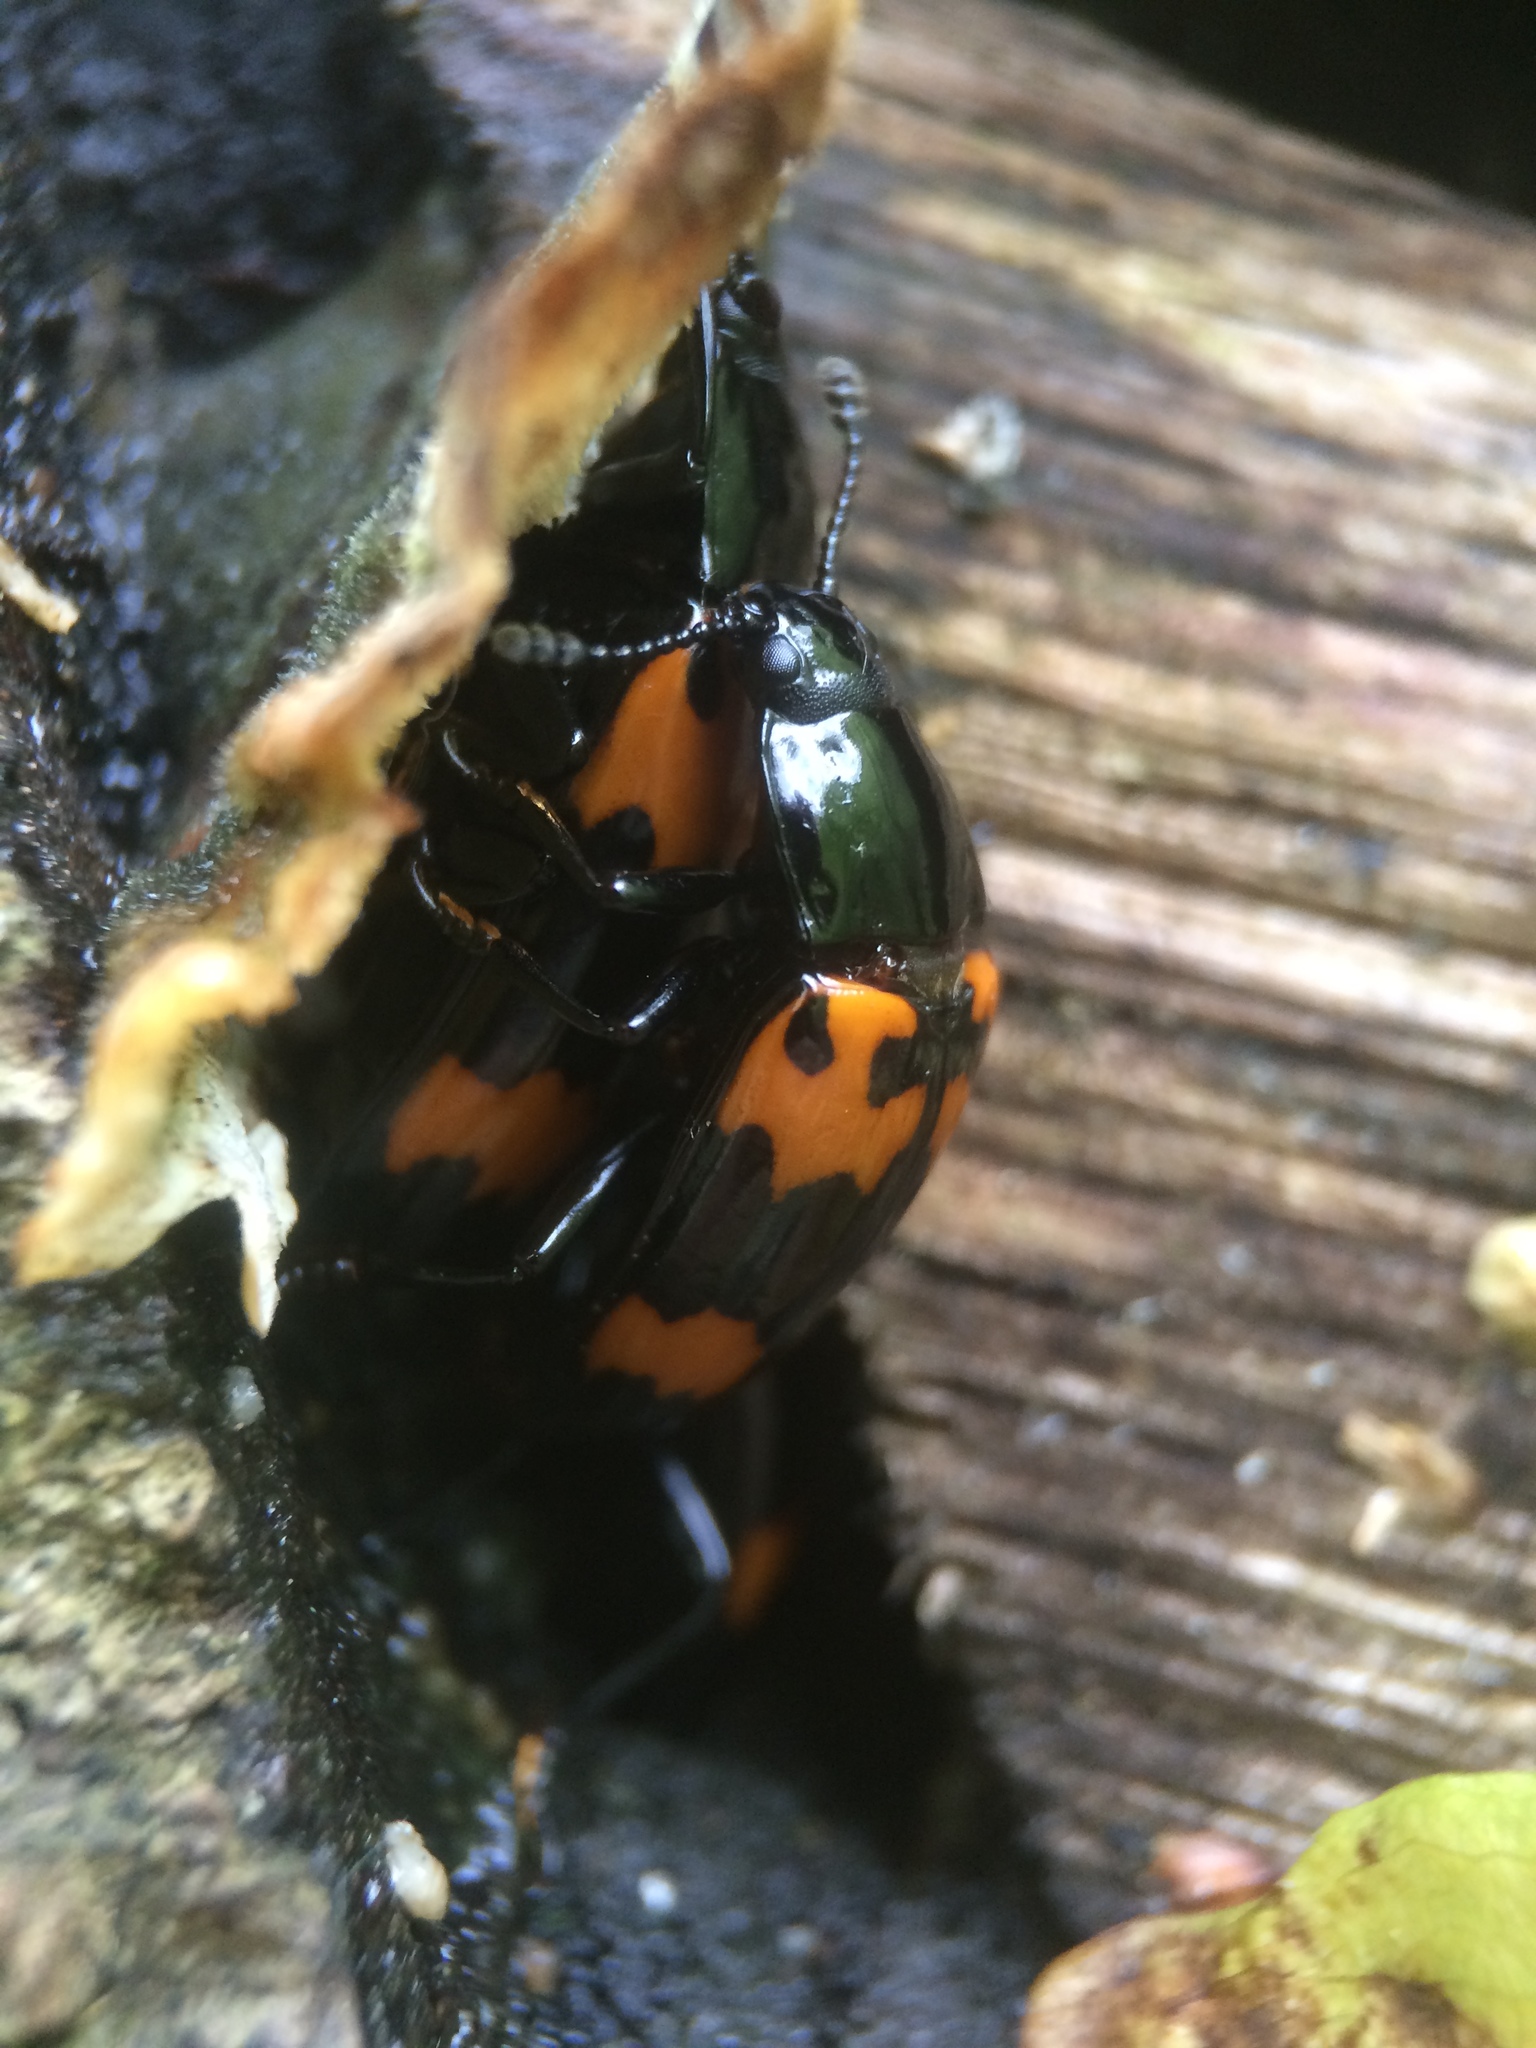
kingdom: Animalia
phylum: Arthropoda
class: Insecta
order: Coleoptera
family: Erotylidae
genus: Megalodacne
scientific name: Megalodacne heros
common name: Pleasing fungus beetle
